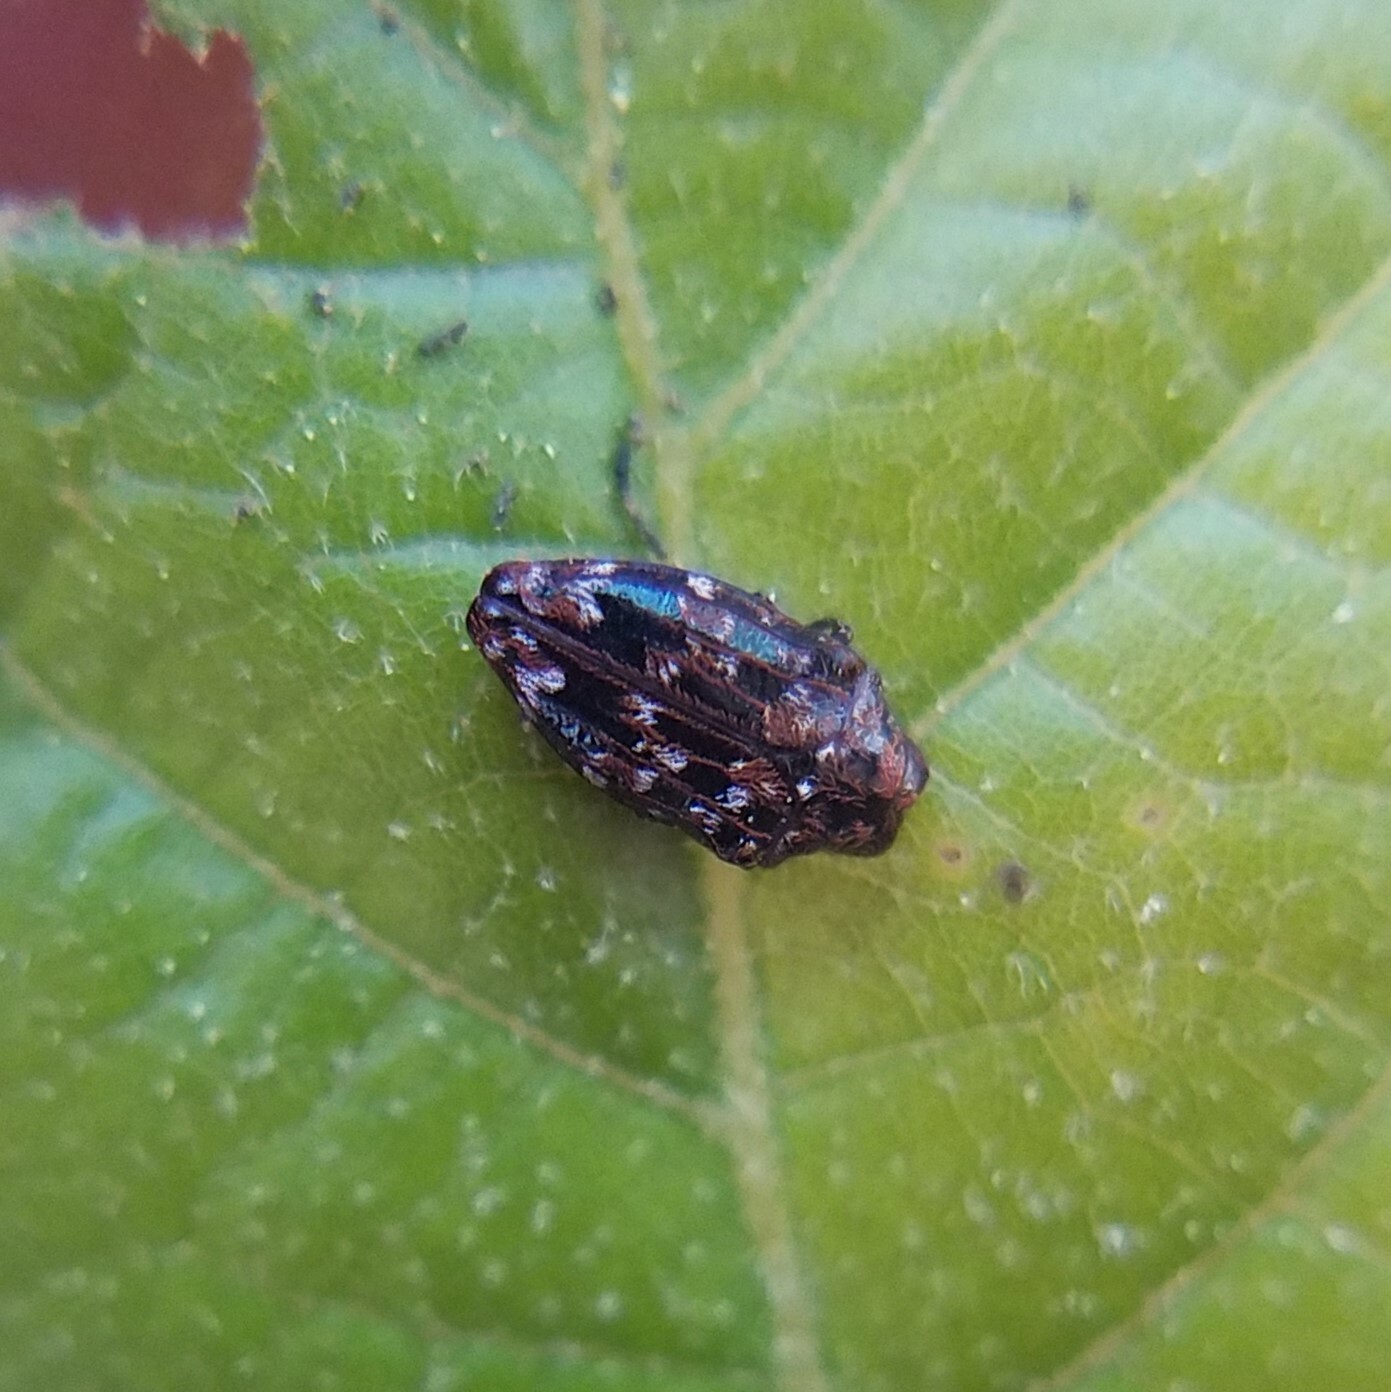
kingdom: Animalia
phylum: Arthropoda
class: Insecta
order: Coleoptera
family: Buprestidae
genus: Brachys
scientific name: Brachys ovatus
